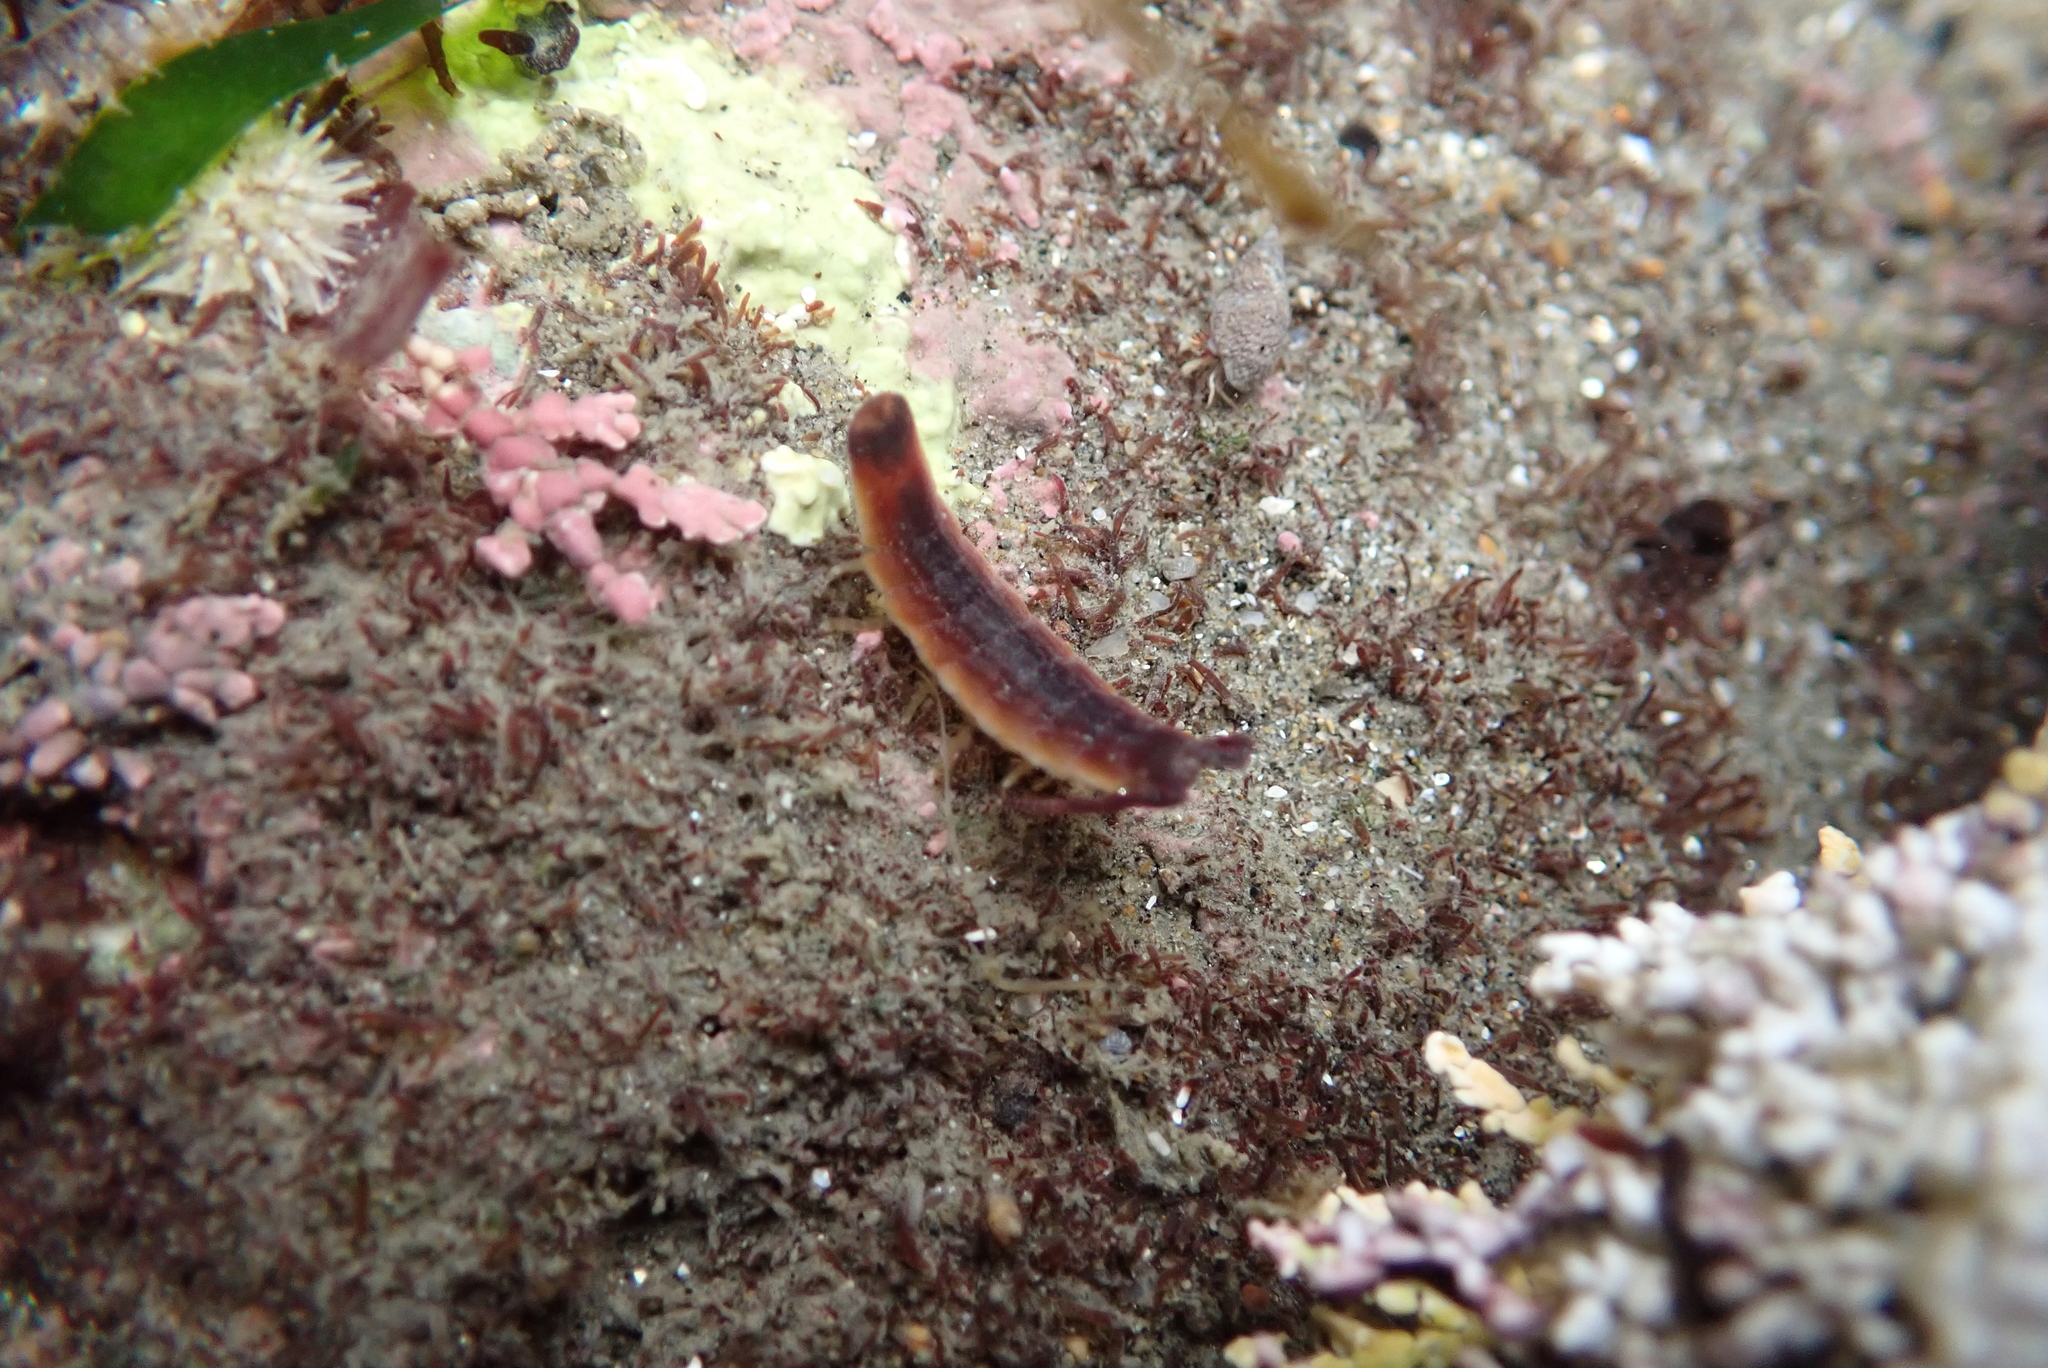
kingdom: Animalia
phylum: Arthropoda
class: Malacostraca
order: Isopoda
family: Idoteidae
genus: Idotea
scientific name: Idotea urotoma
